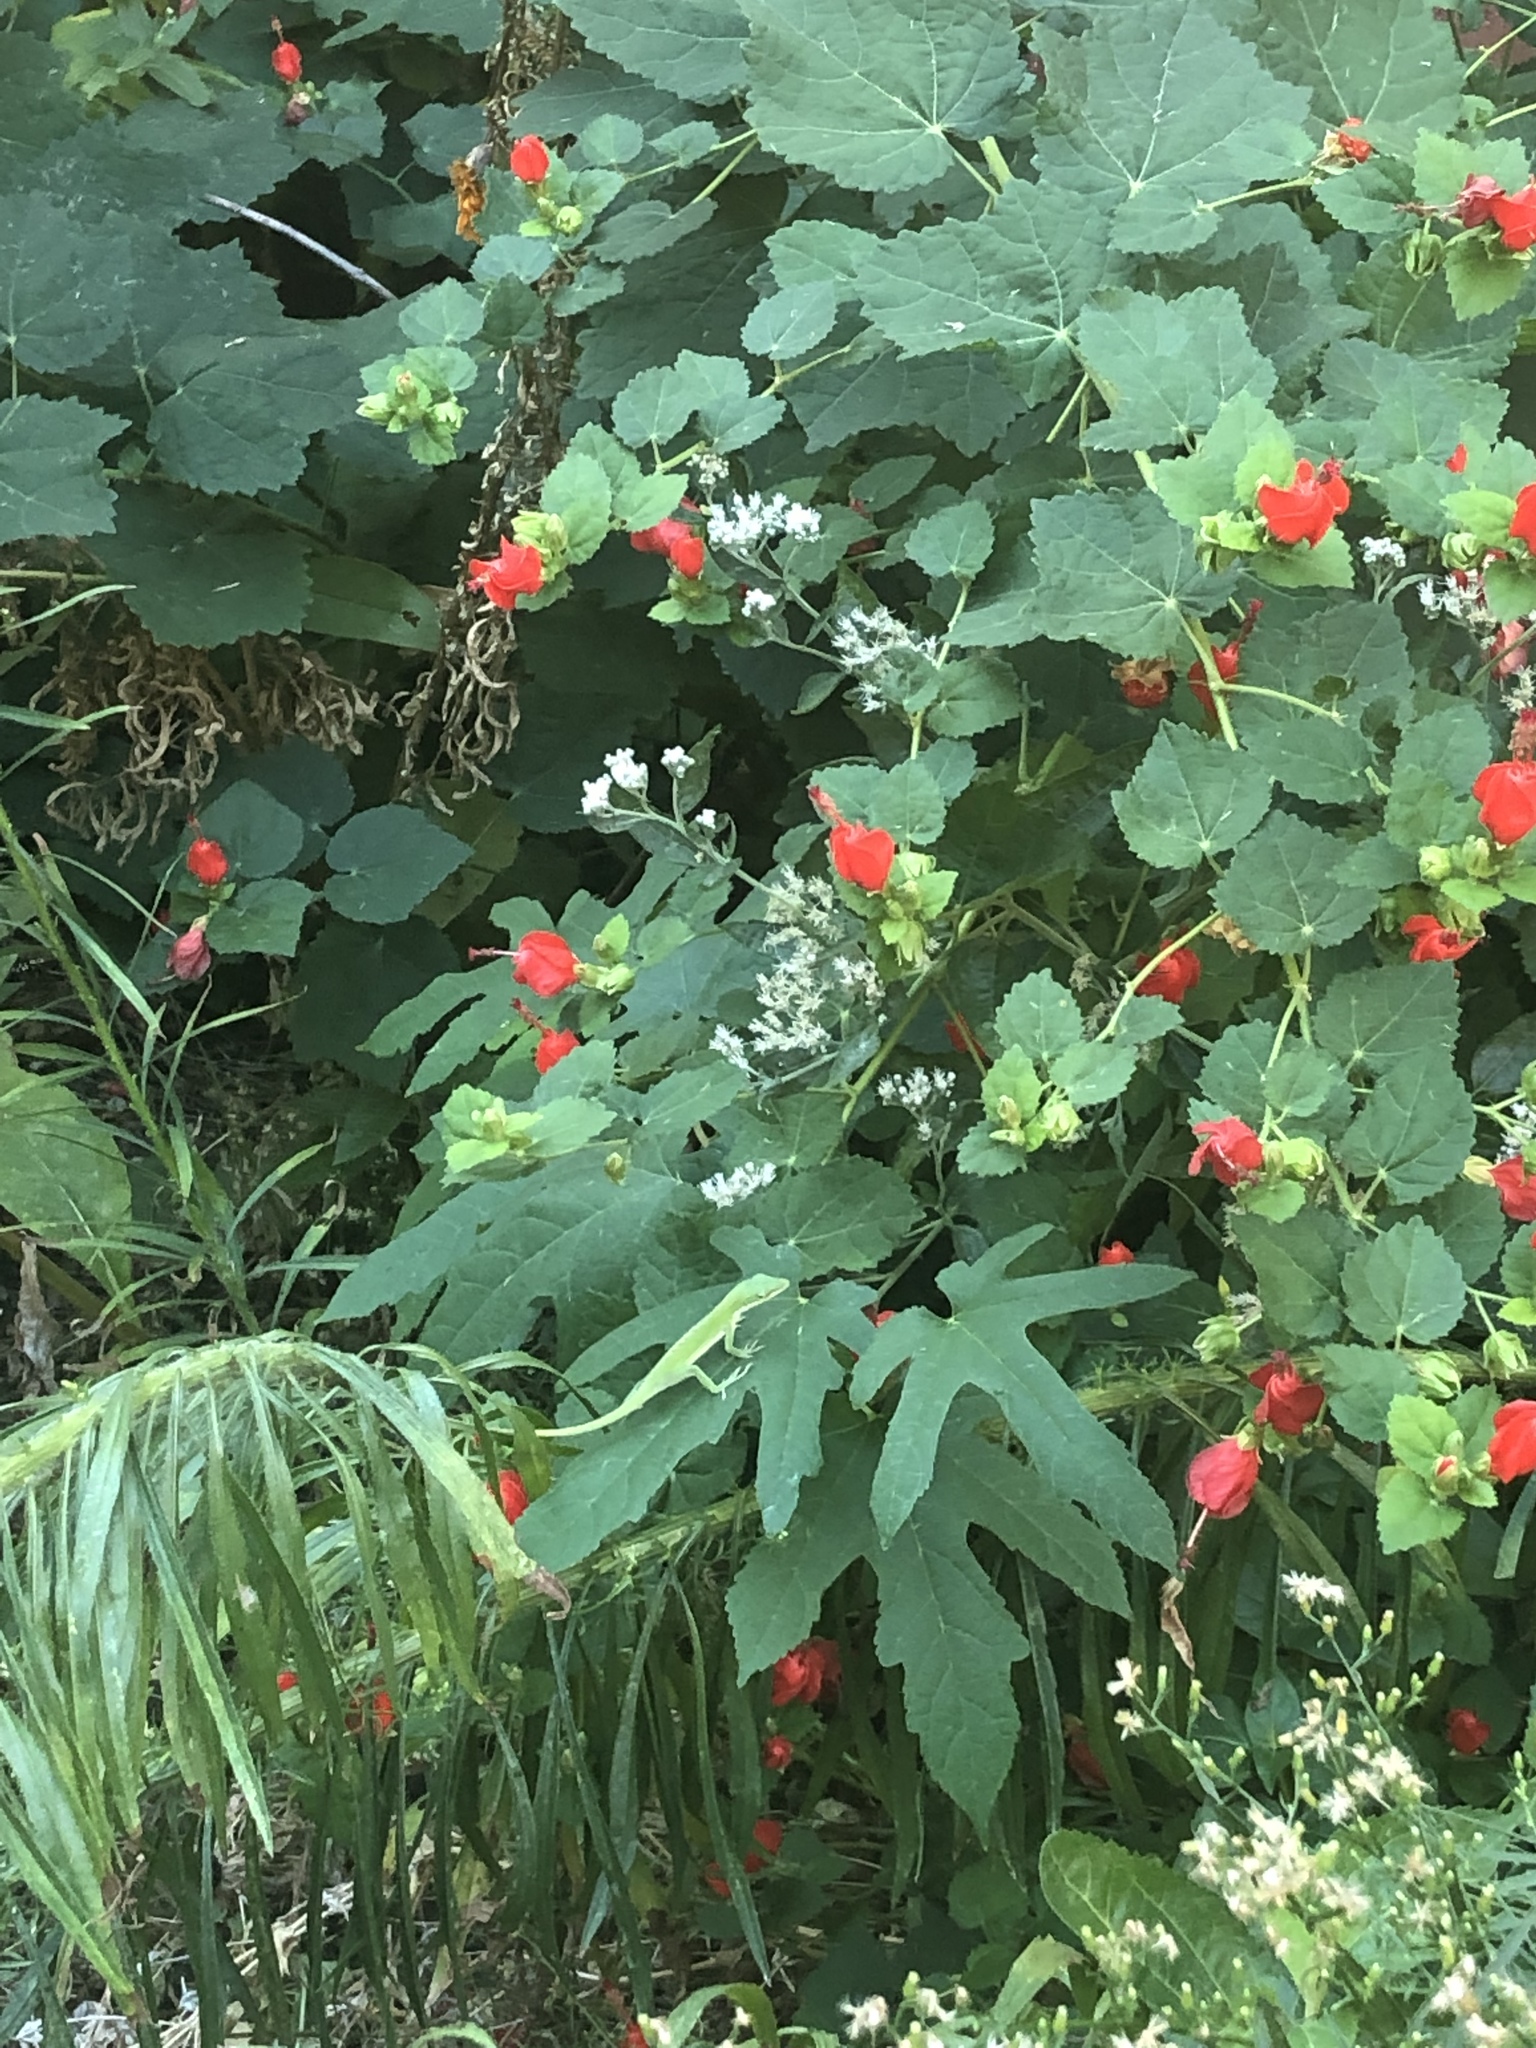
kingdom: Animalia
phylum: Chordata
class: Squamata
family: Dactyloidae
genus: Anolis
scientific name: Anolis carolinensis
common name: Green anole
